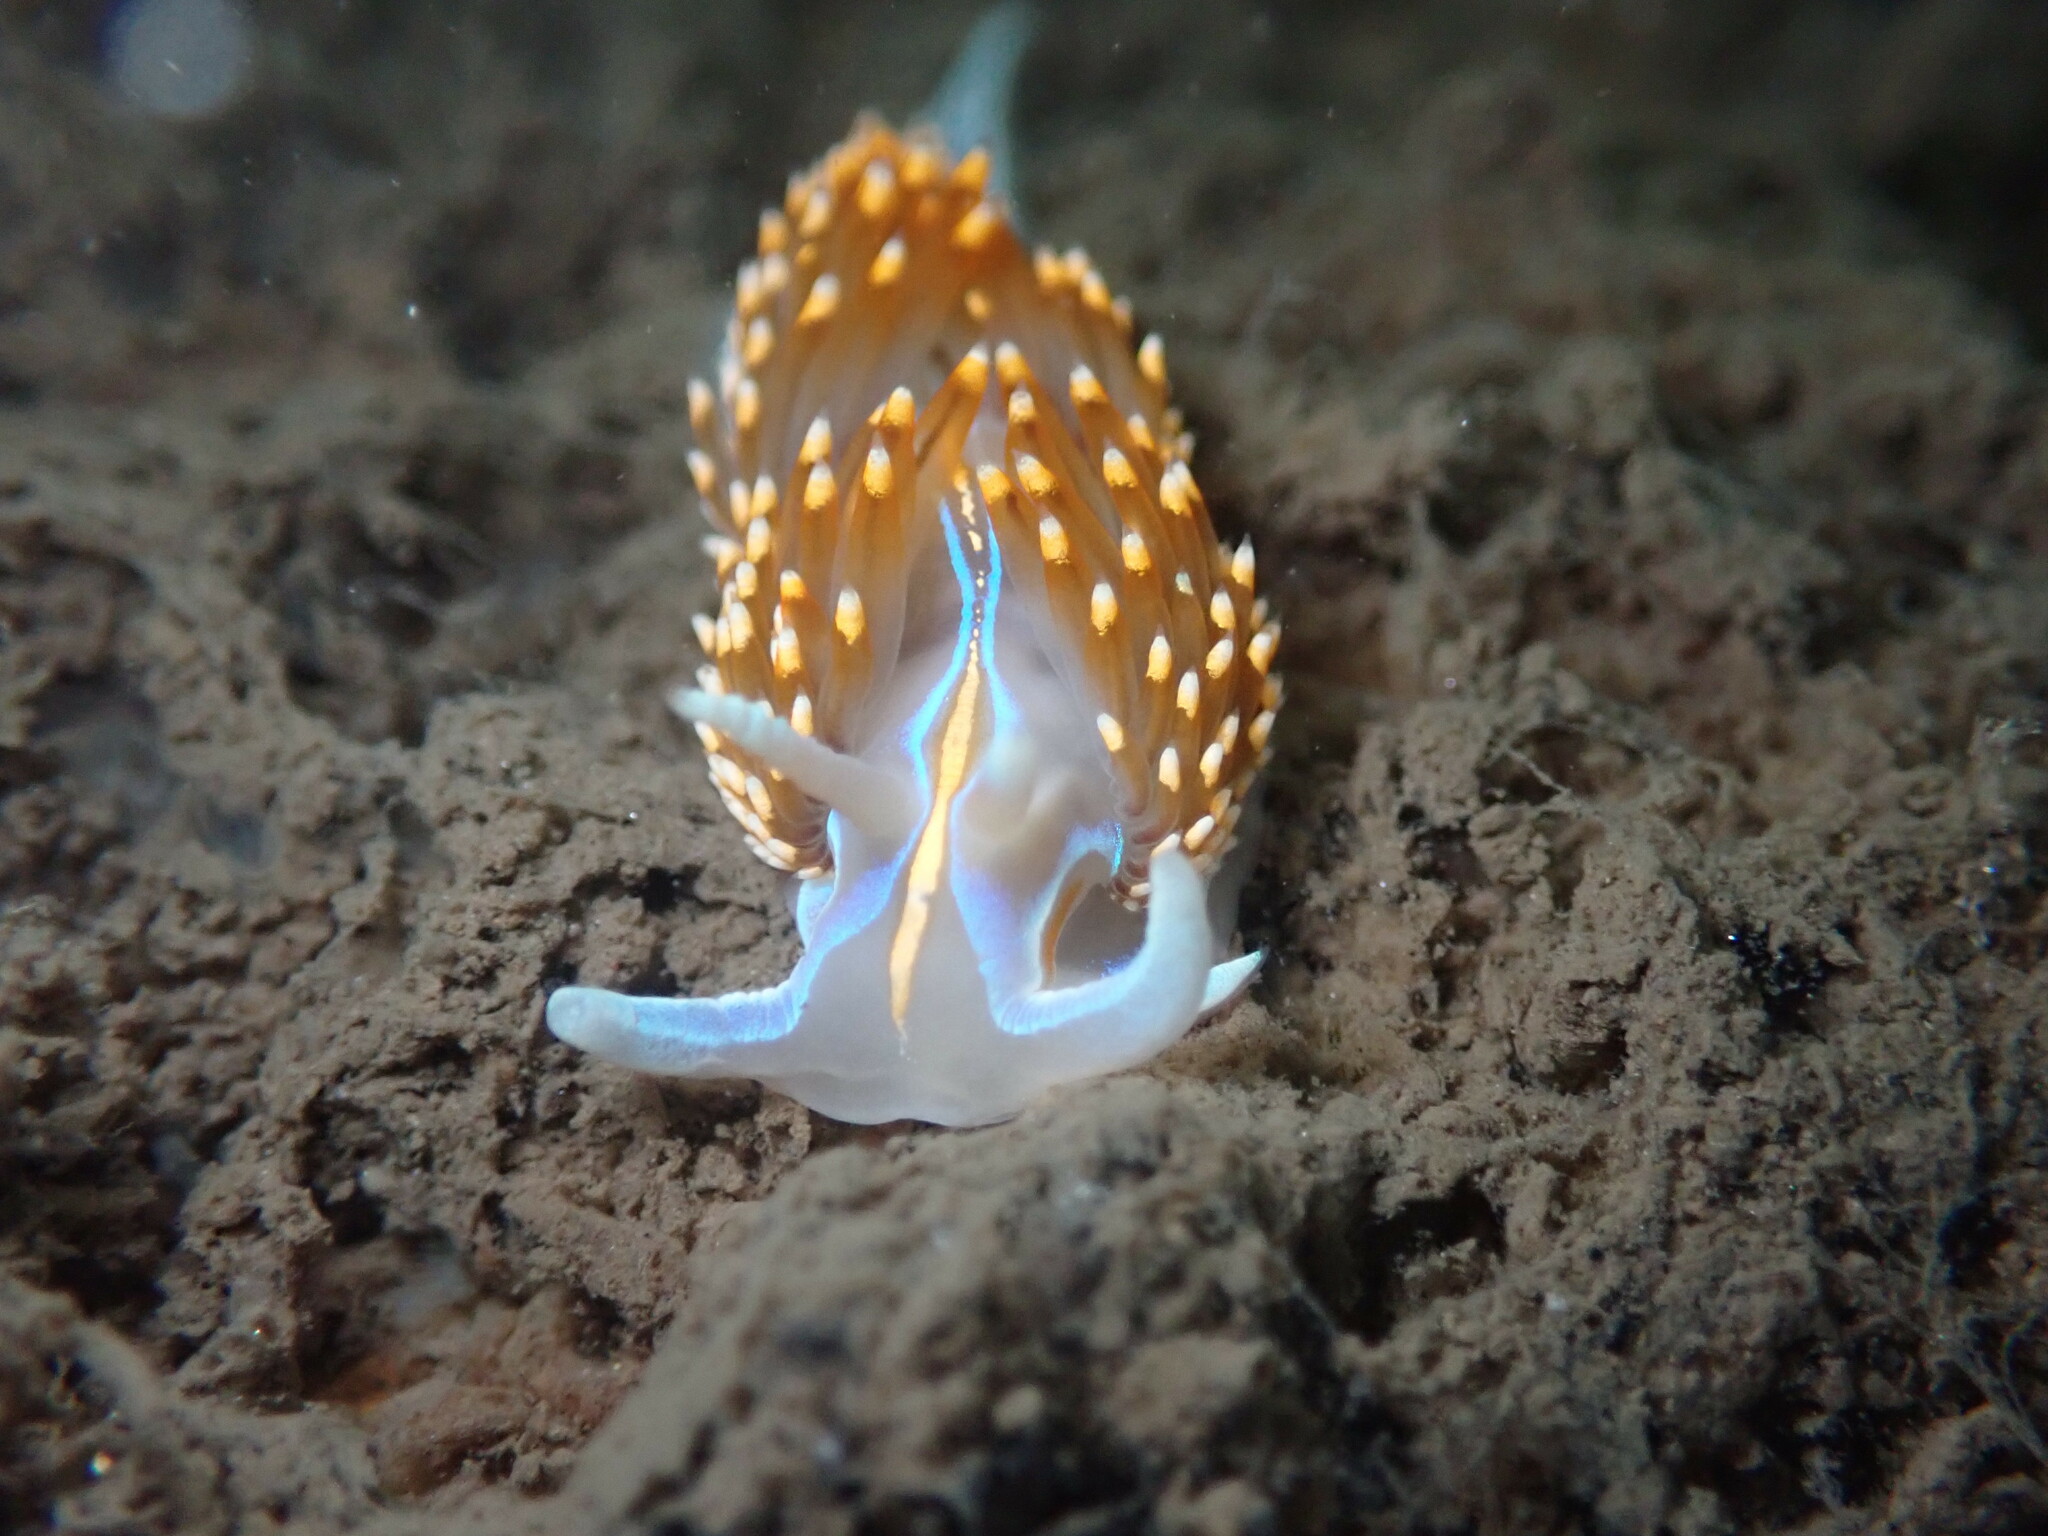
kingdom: Animalia
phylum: Mollusca
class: Gastropoda
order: Nudibranchia
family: Myrrhinidae
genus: Hermissenda
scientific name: Hermissenda opalescens
